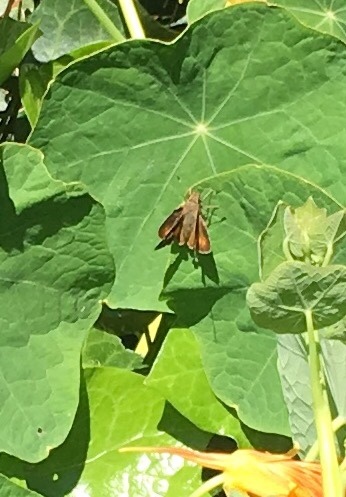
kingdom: Animalia
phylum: Arthropoda
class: Insecta
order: Lepidoptera
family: Hesperiidae
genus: Lon
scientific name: Lon melane
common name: Umber skipper
